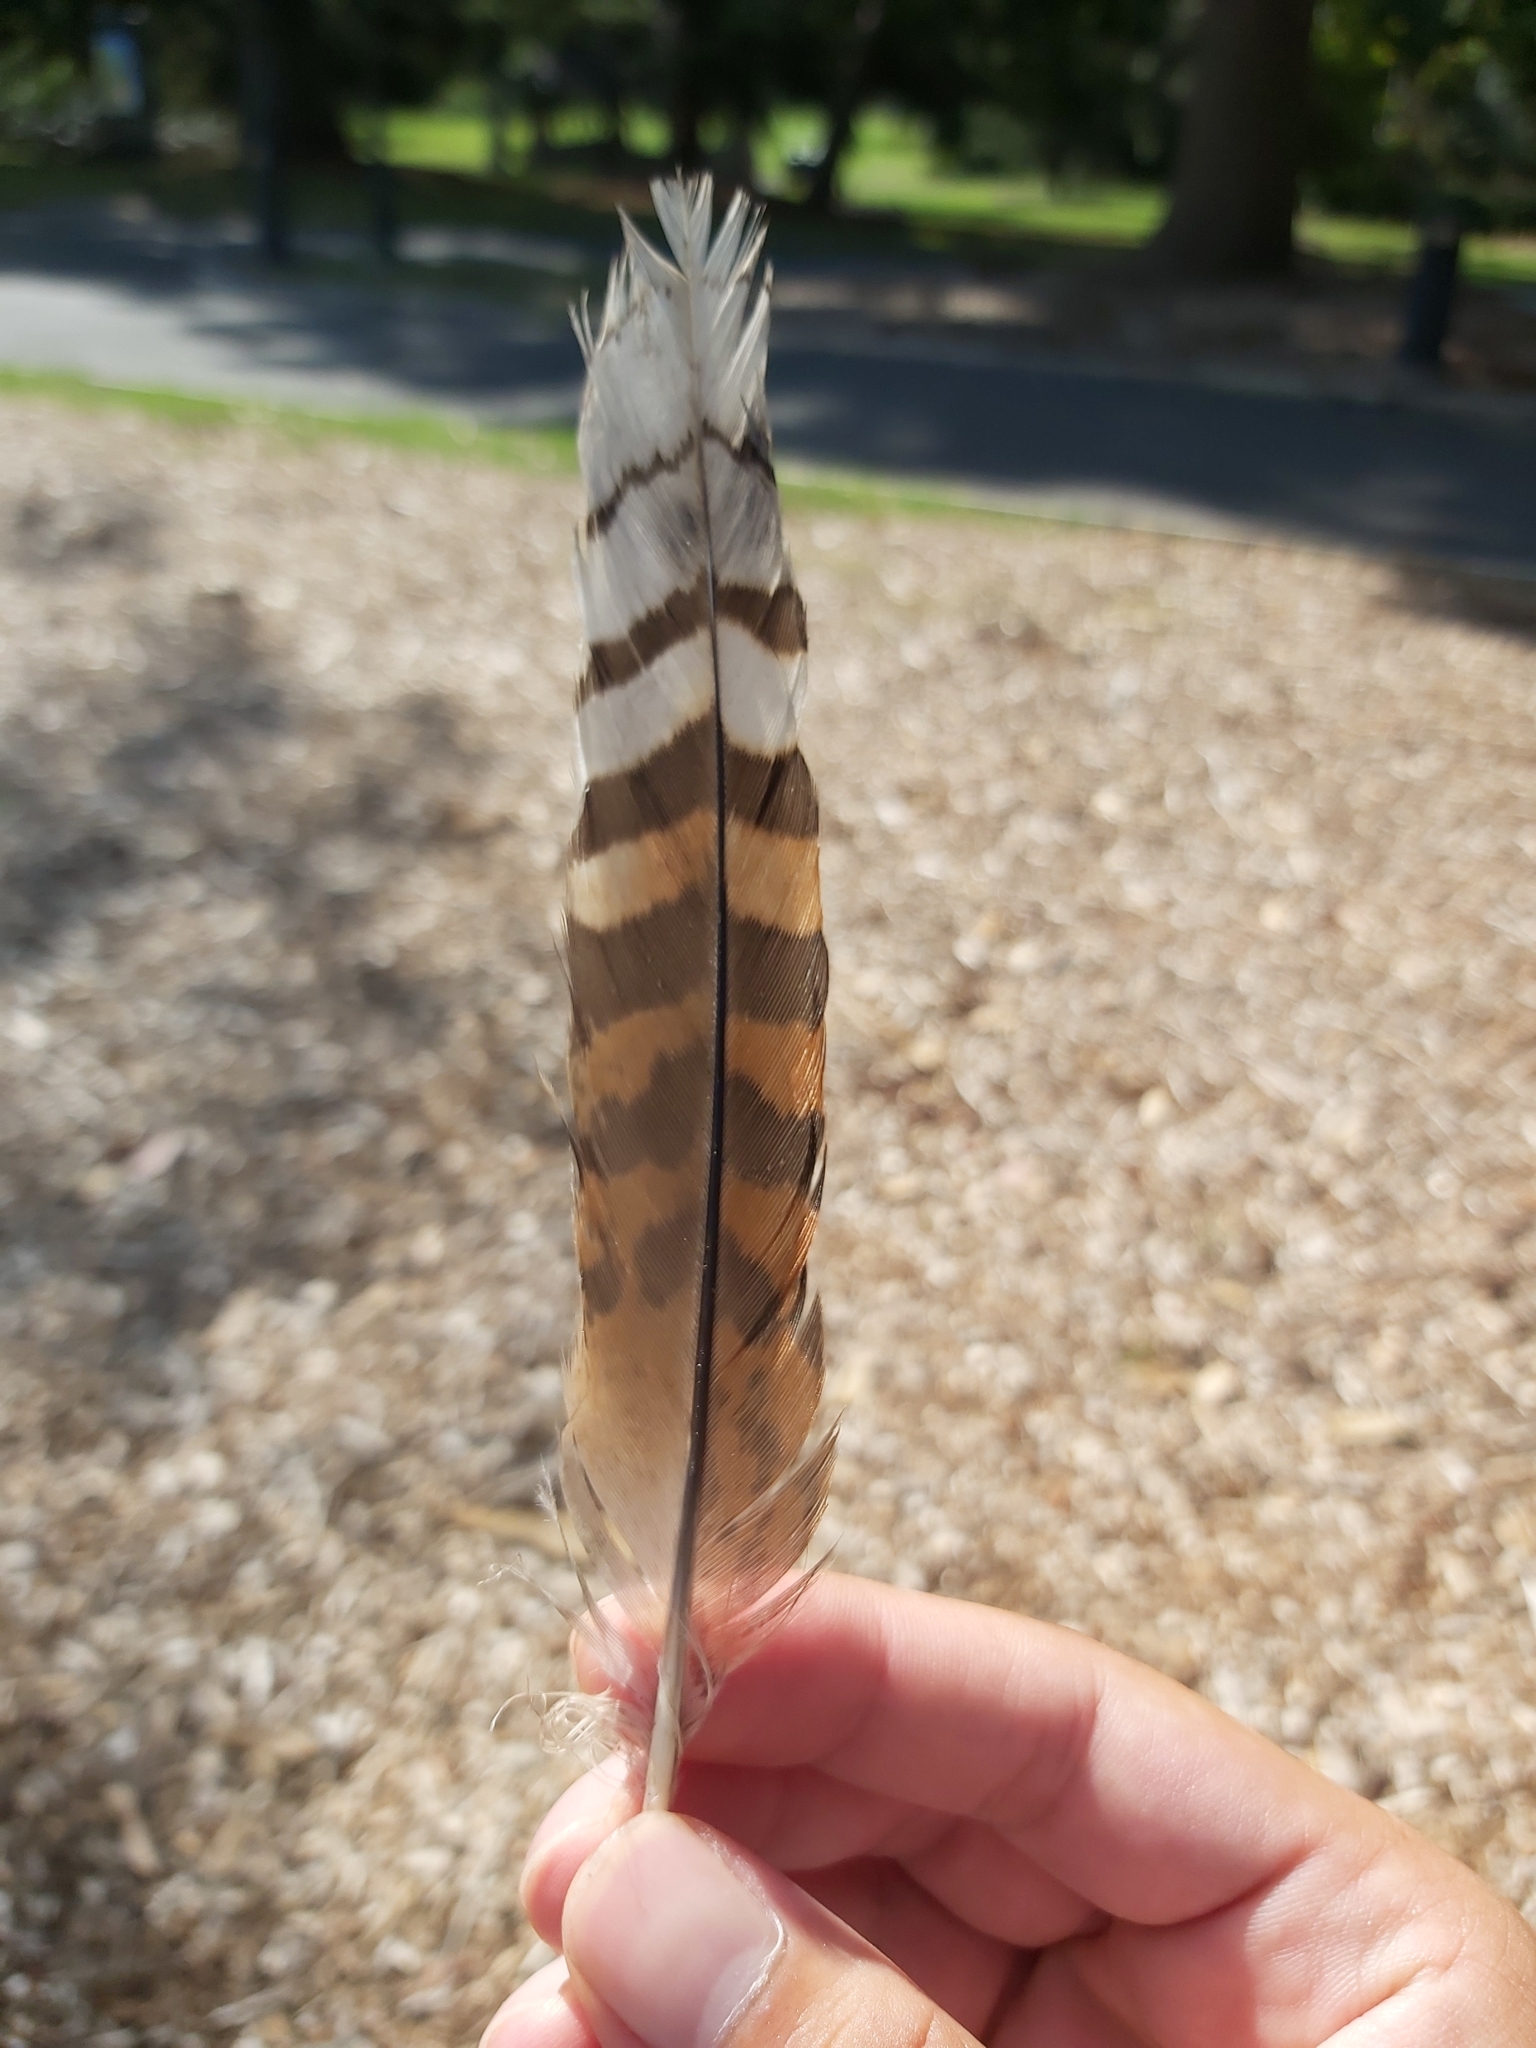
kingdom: Animalia
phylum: Chordata
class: Aves
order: Coraciiformes
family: Alcedinidae
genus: Dacelo
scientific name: Dacelo novaeguineae
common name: Laughing kookaburra
